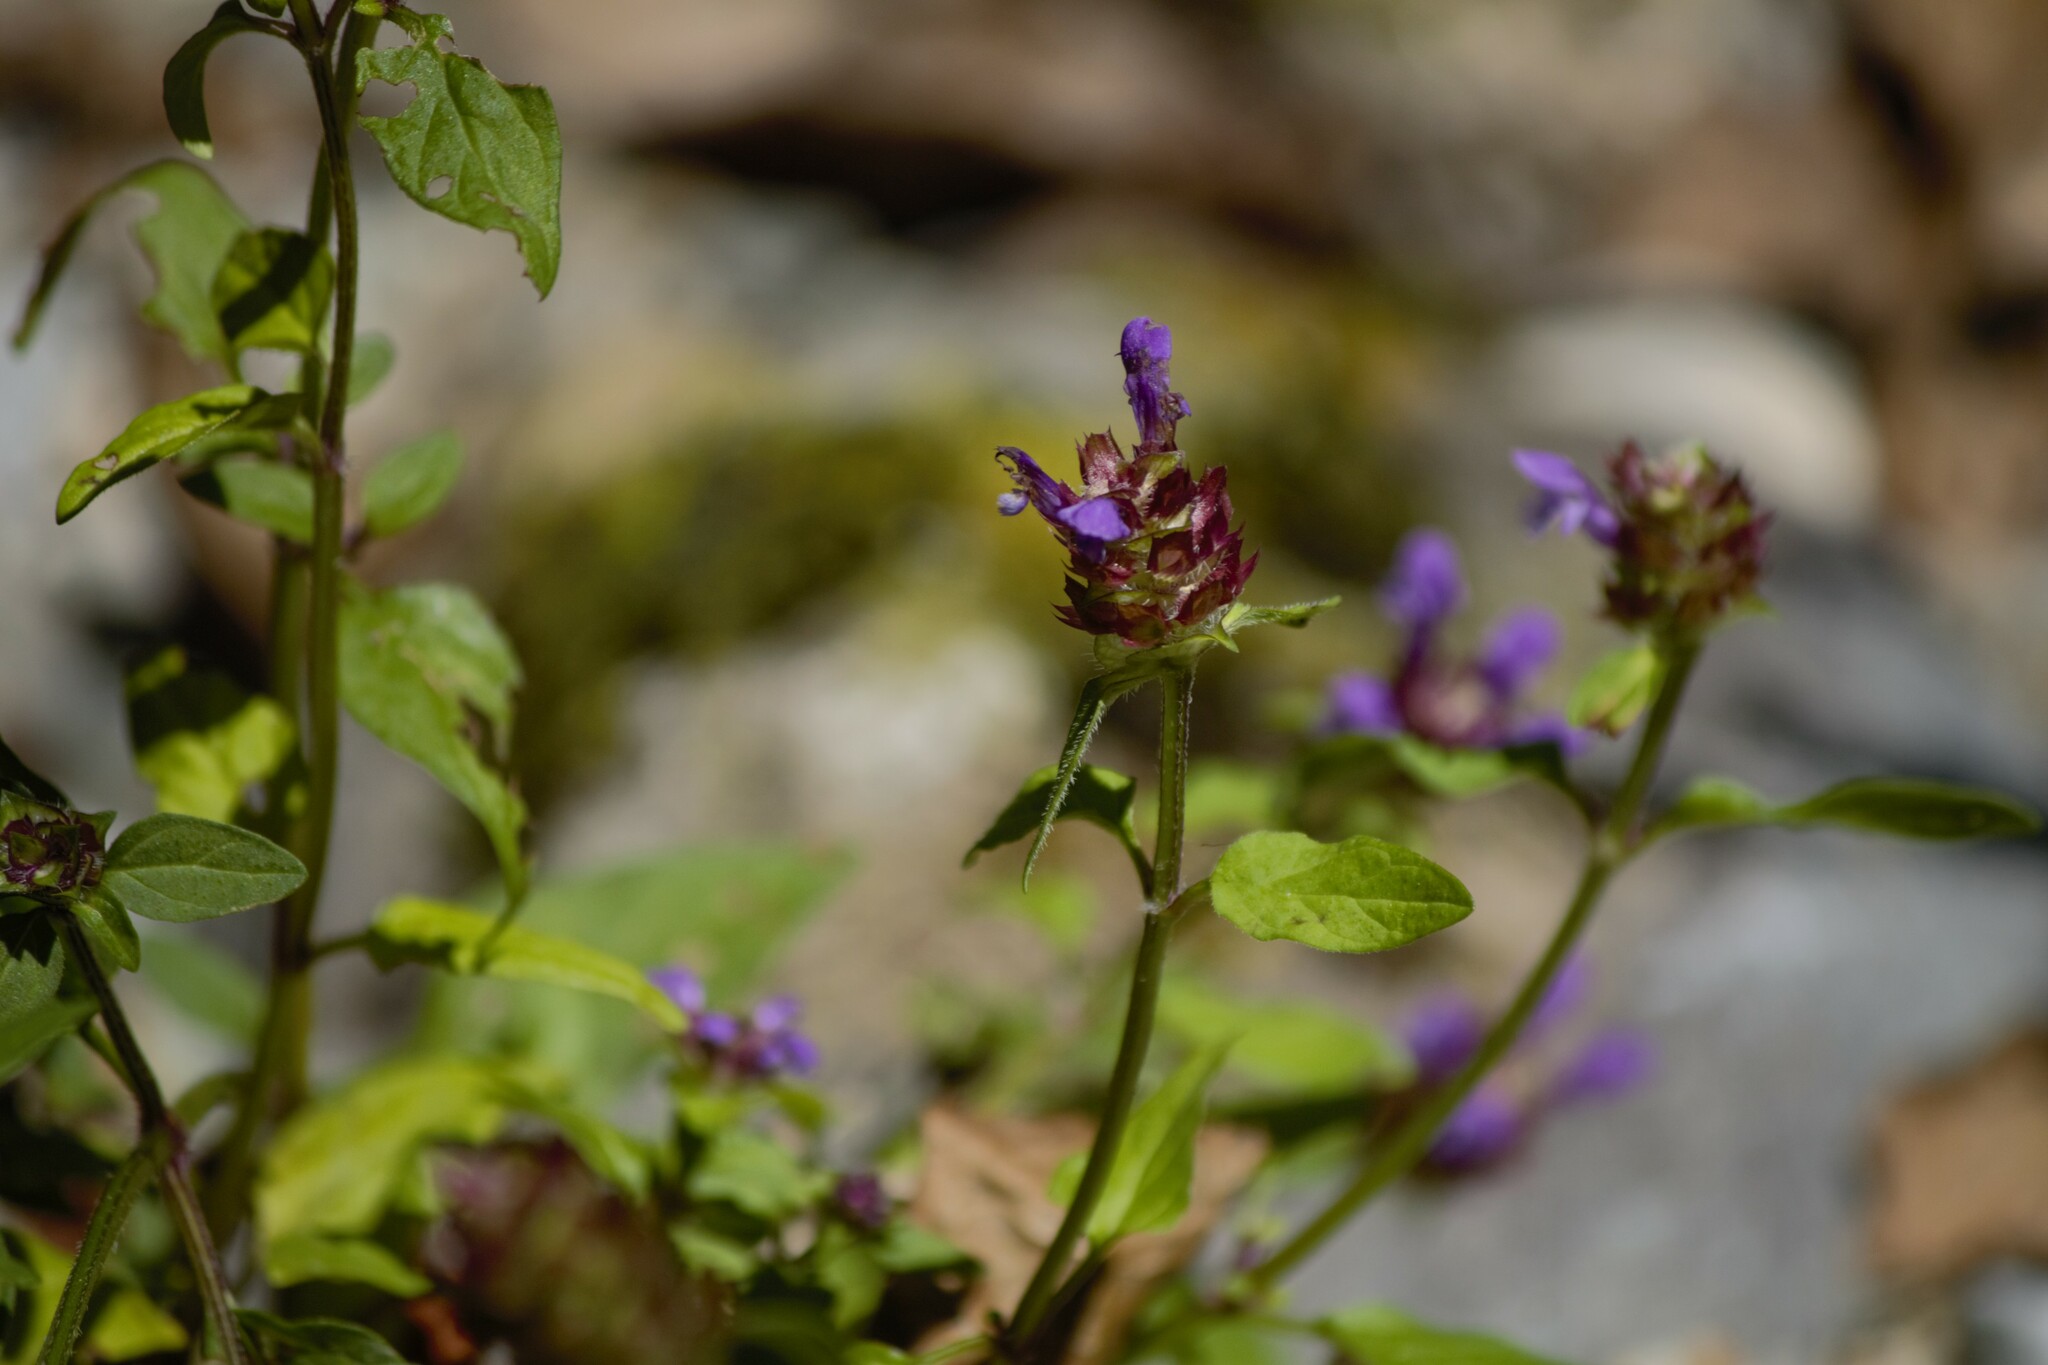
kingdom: Plantae
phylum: Tracheophyta
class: Magnoliopsida
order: Lamiales
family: Lamiaceae
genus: Prunella
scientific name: Prunella vulgaris
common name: Heal-all
